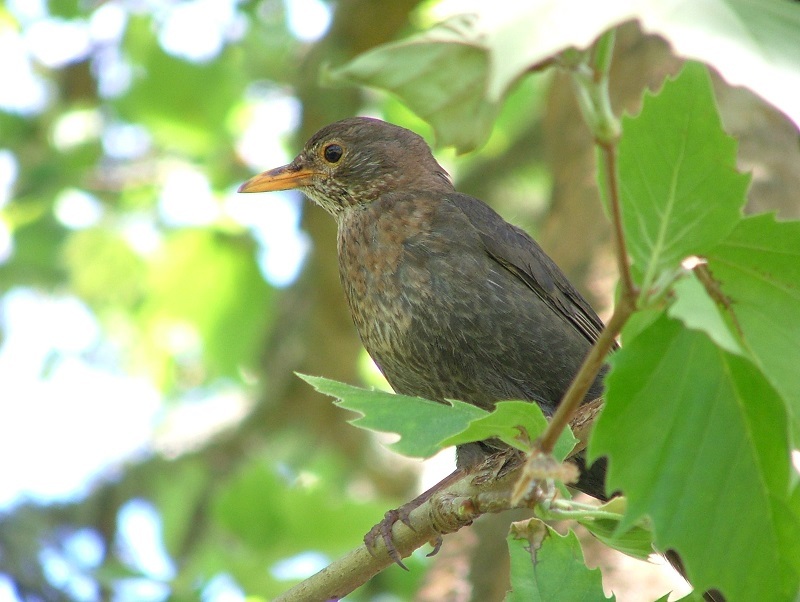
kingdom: Animalia
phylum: Chordata
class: Aves
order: Passeriformes
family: Turdidae
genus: Turdus
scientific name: Turdus merula
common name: Common blackbird
